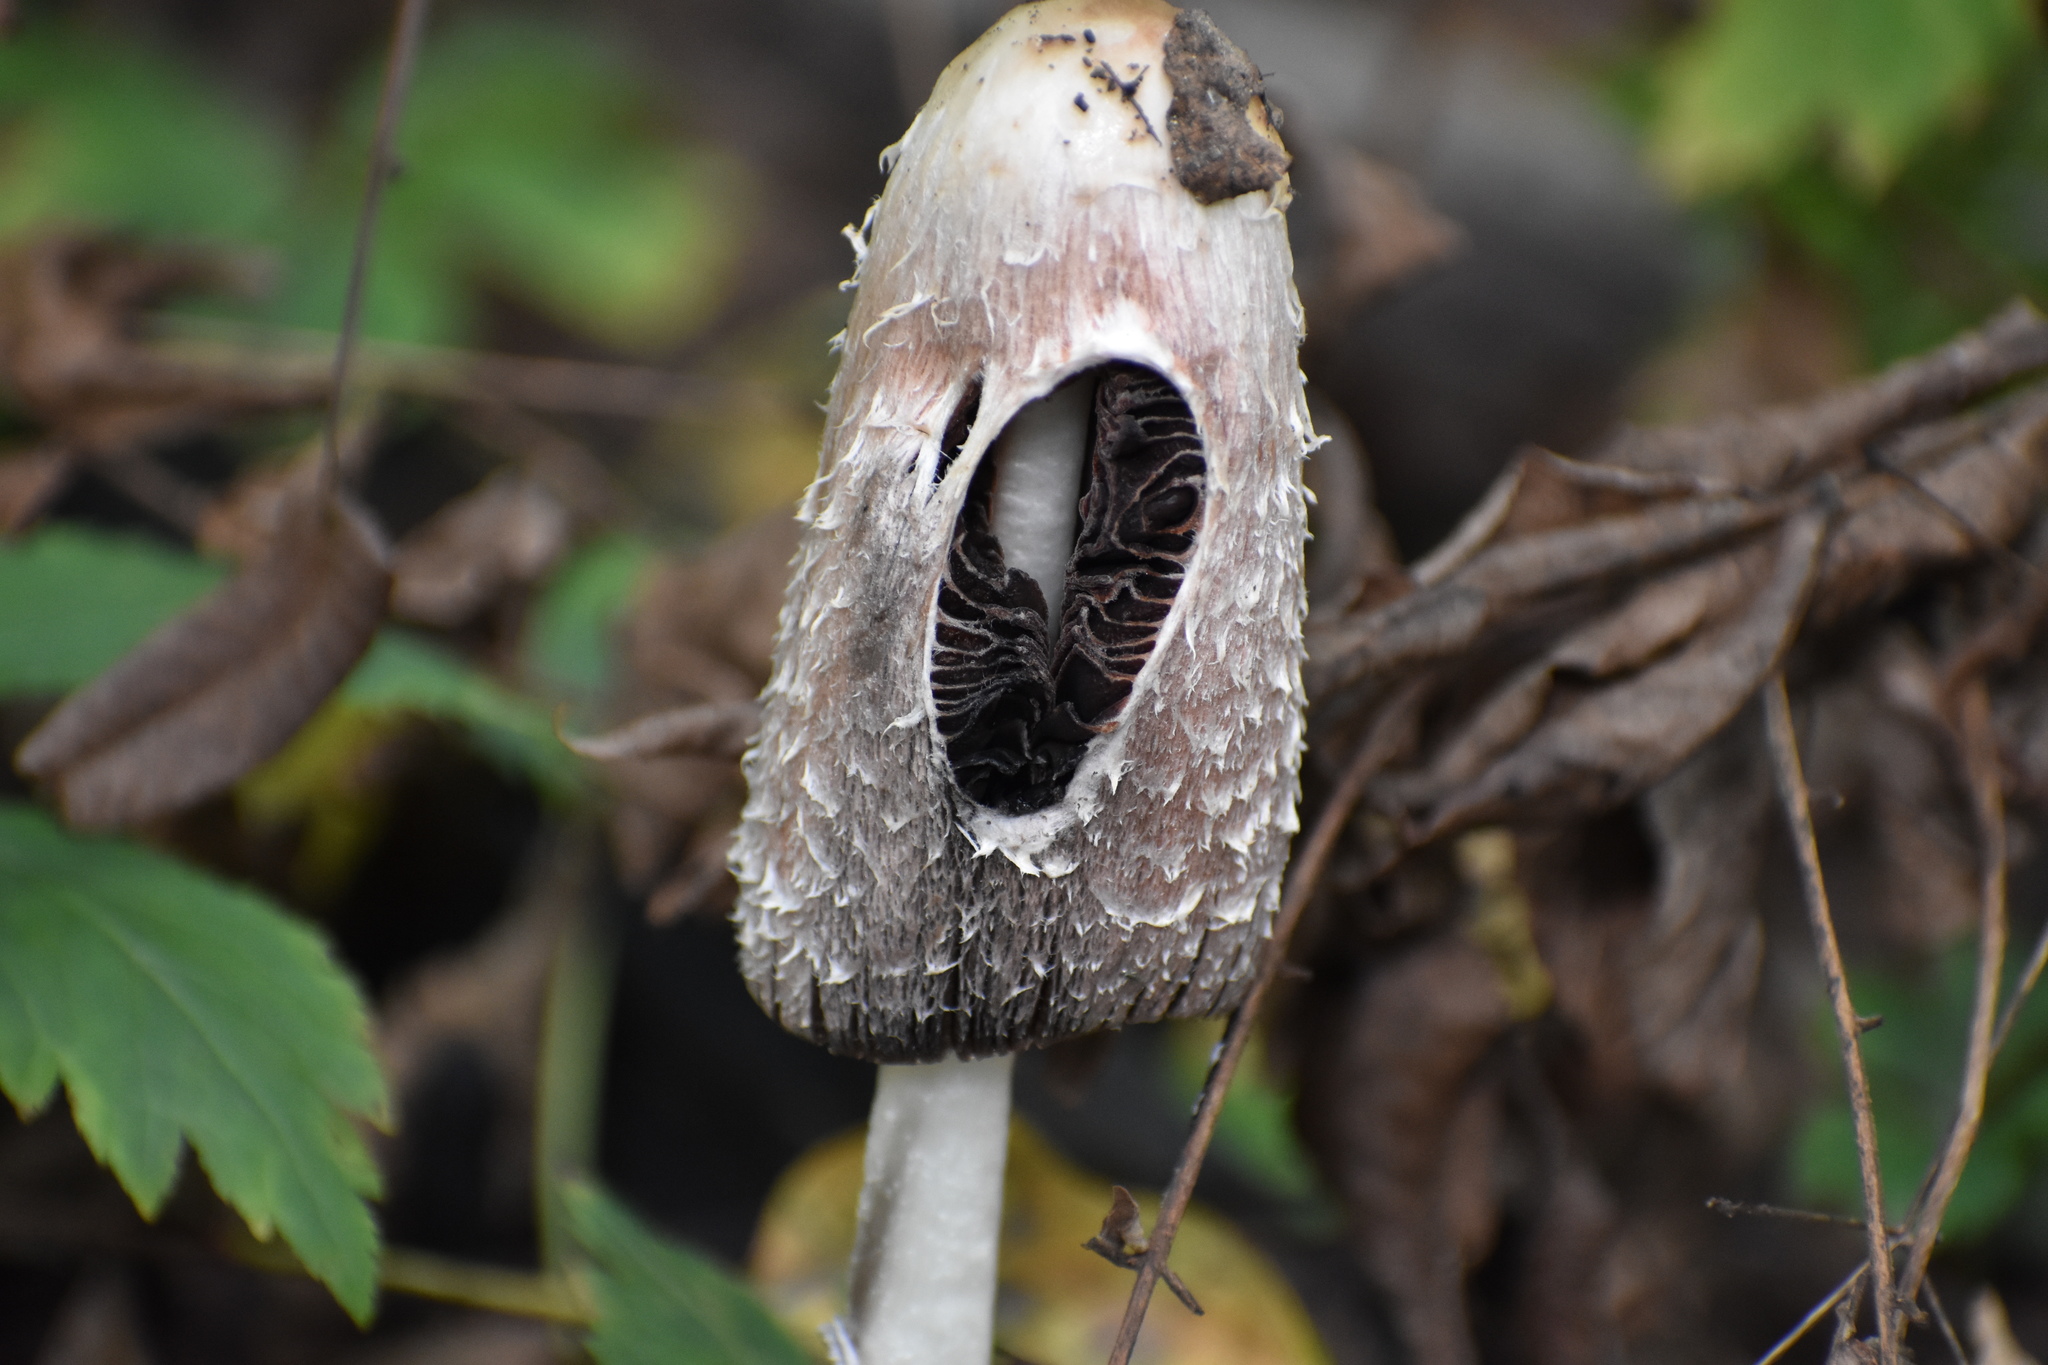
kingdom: Fungi
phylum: Basidiomycota
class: Agaricomycetes
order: Agaricales
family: Agaricaceae
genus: Coprinus
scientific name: Coprinus comatus
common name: Lawyer's wig
